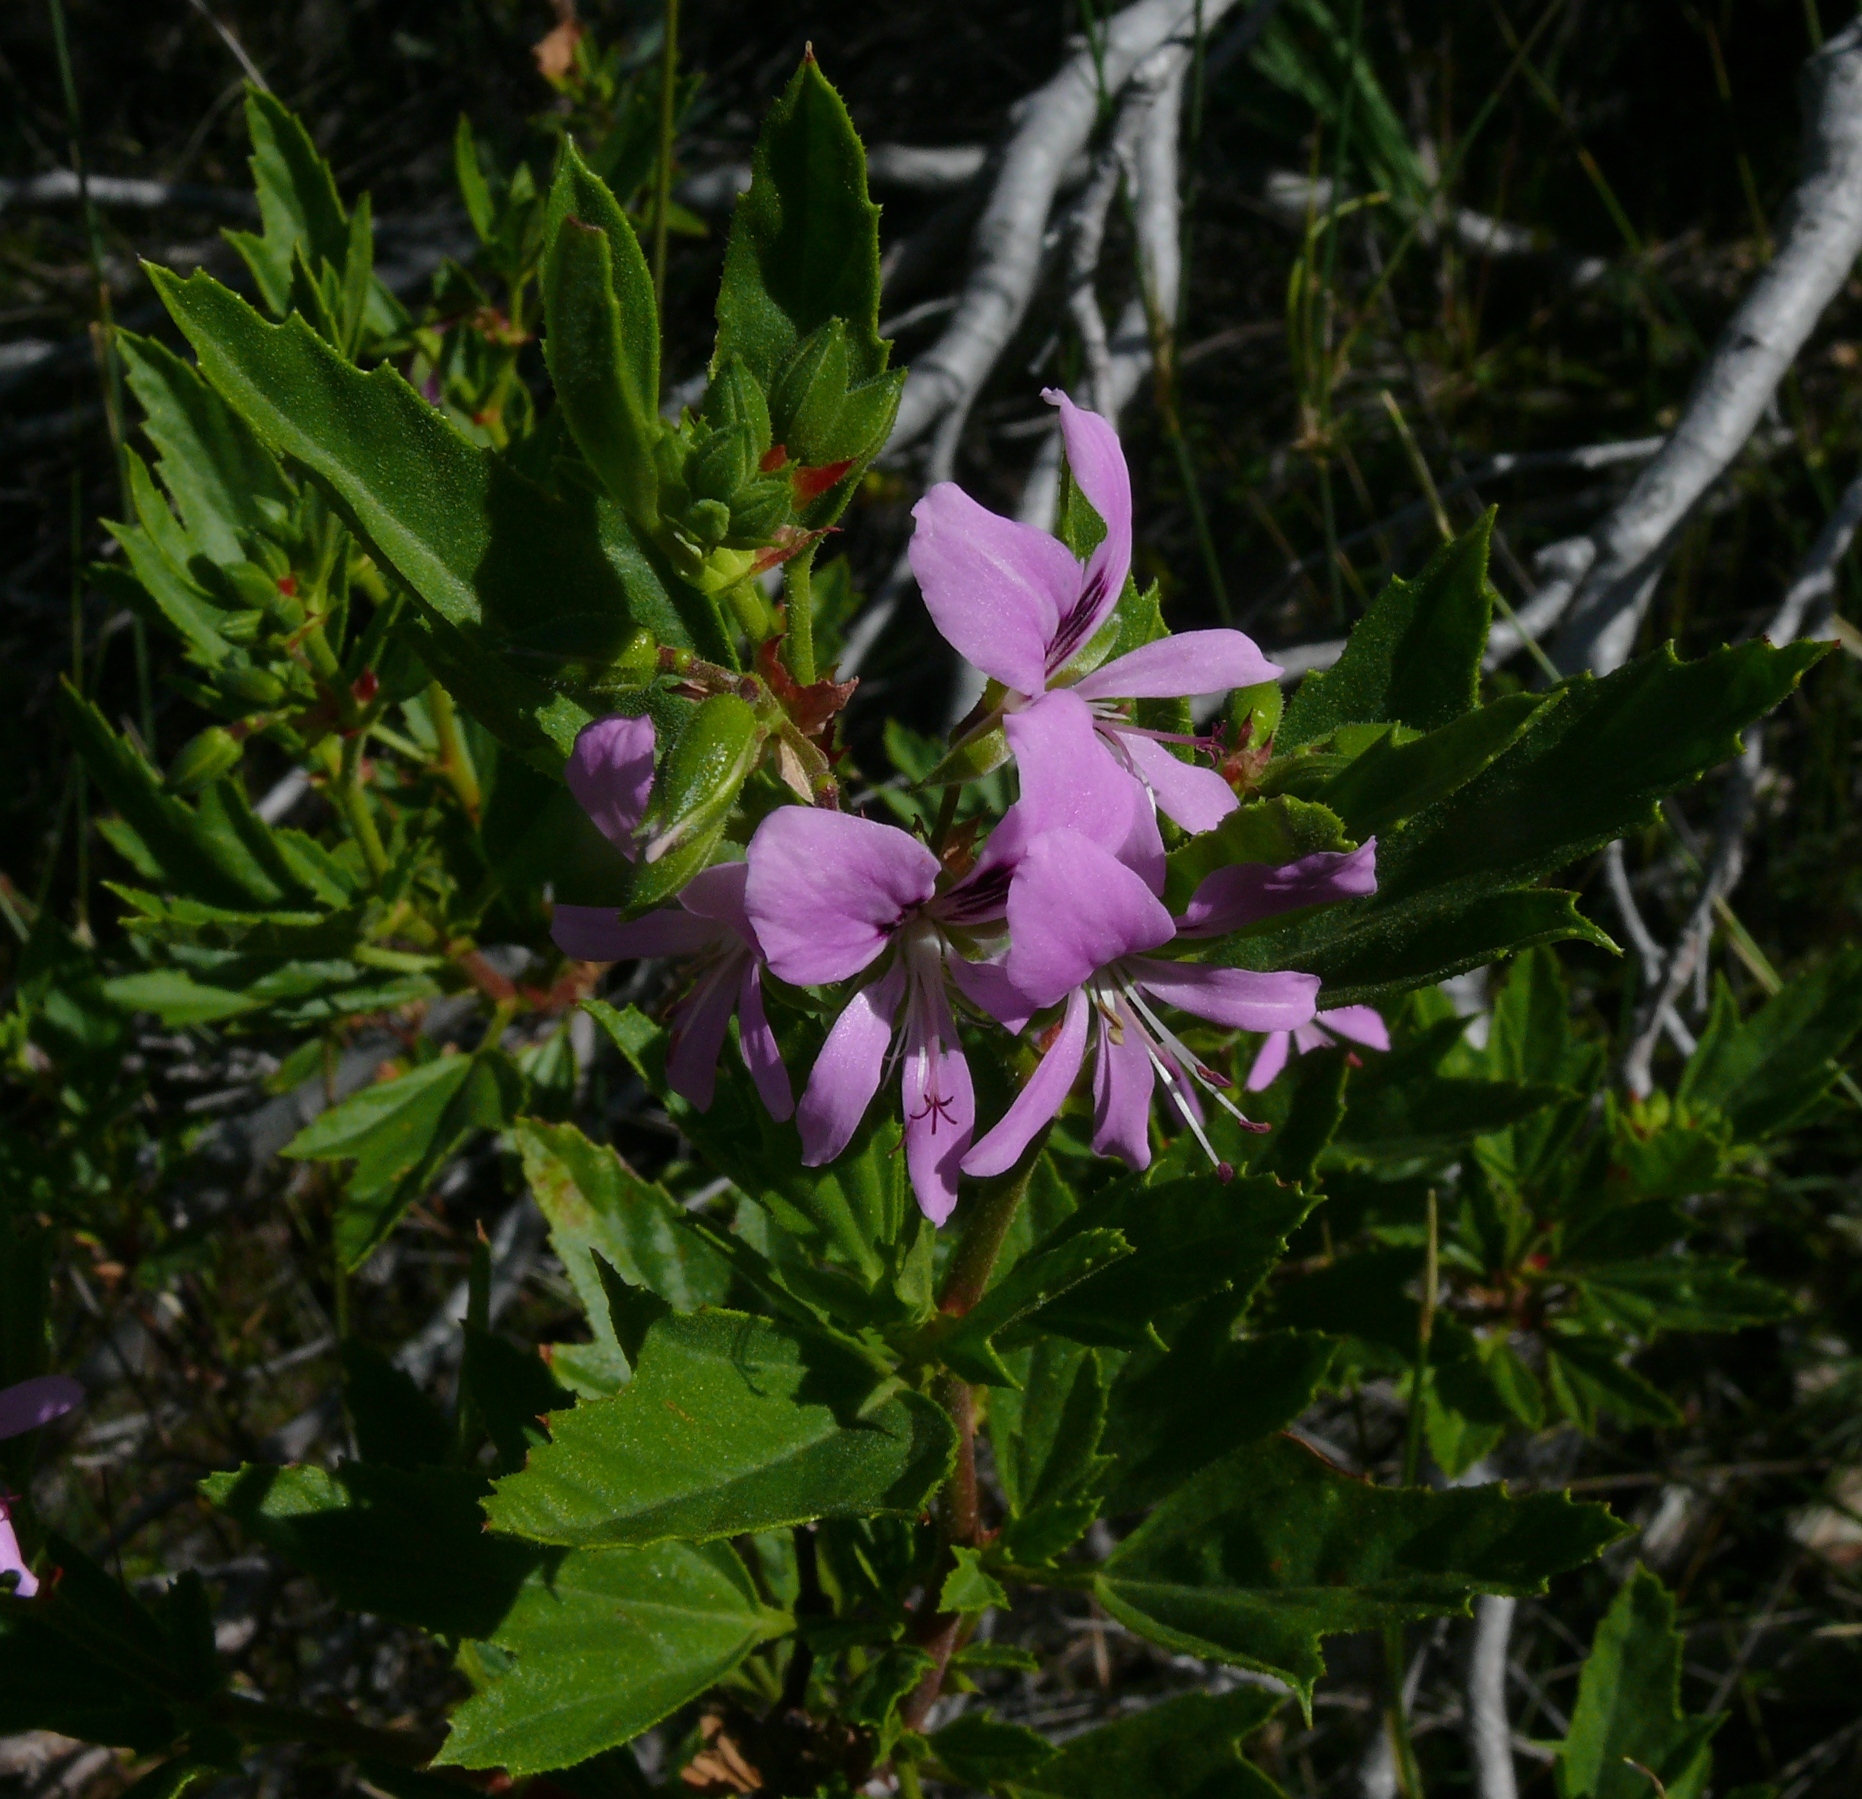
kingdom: Plantae
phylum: Tracheophyta
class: Magnoliopsida
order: Geraniales
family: Geraniaceae
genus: Pelargonium
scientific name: Pelargonium scabrum
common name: Apricot geranium
